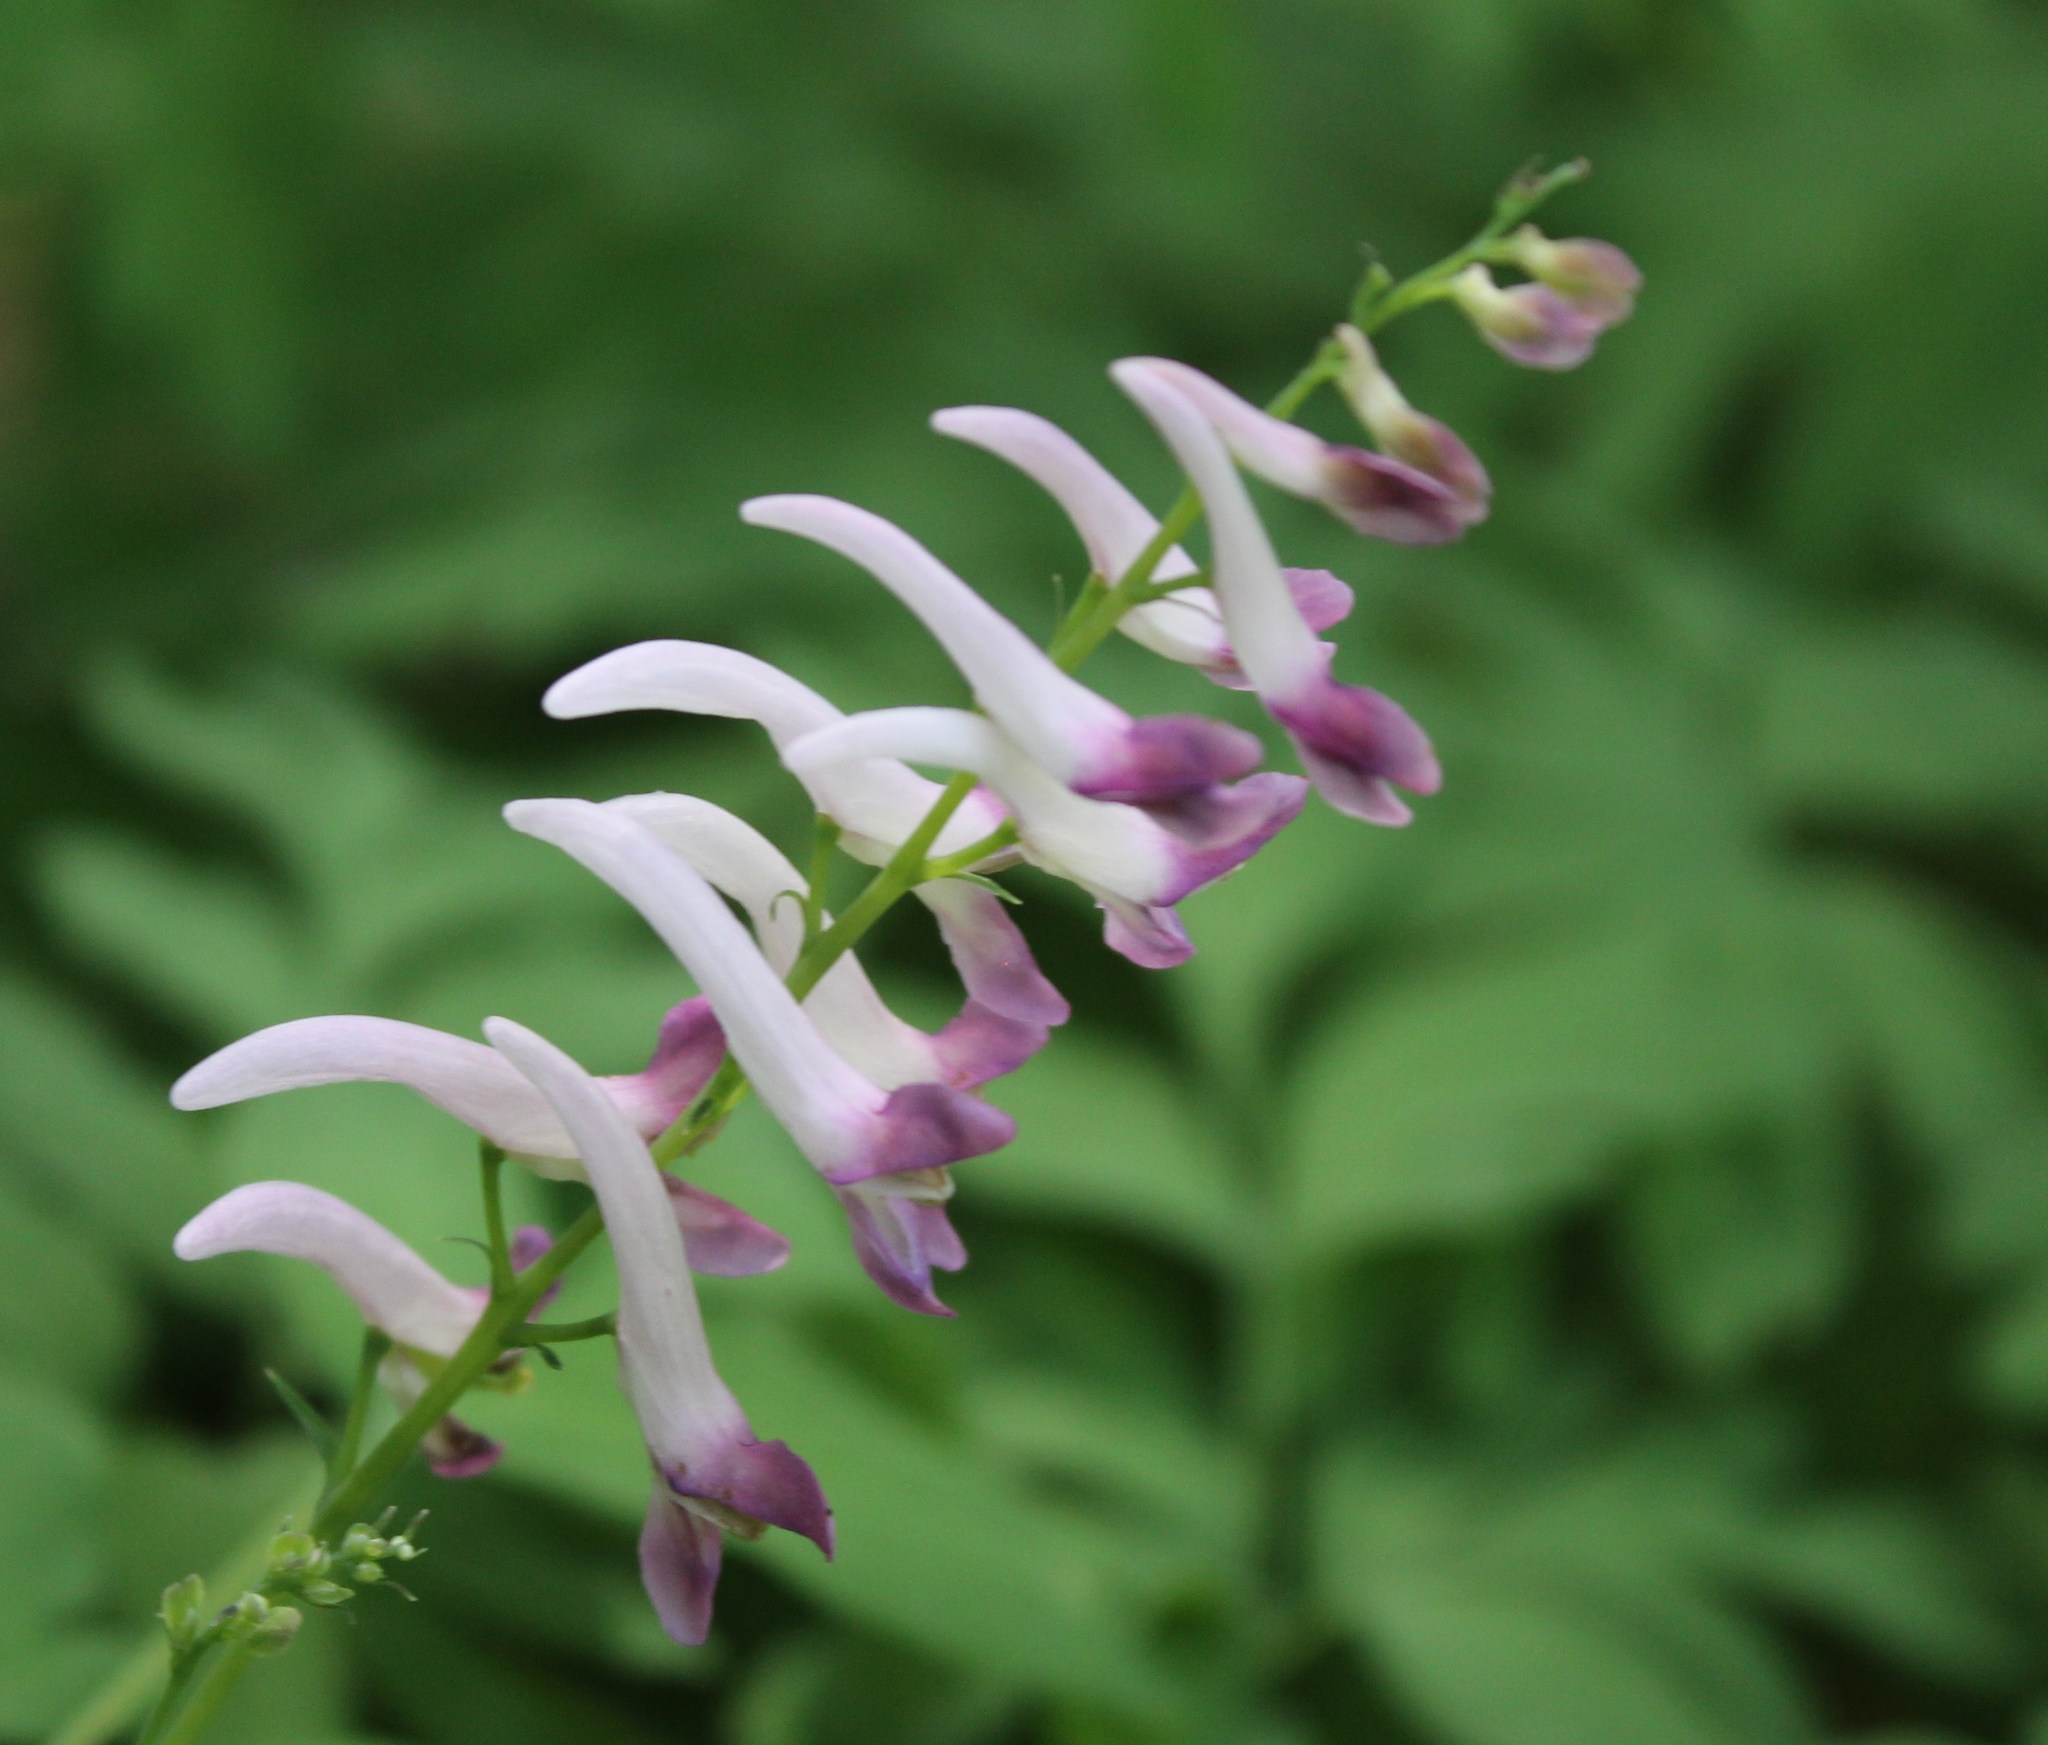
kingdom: Plantae
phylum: Tracheophyta
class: Magnoliopsida
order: Ranunculales
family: Papaveraceae
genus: Corydalis
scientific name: Corydalis scouleri
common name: Scouler's corydalis
